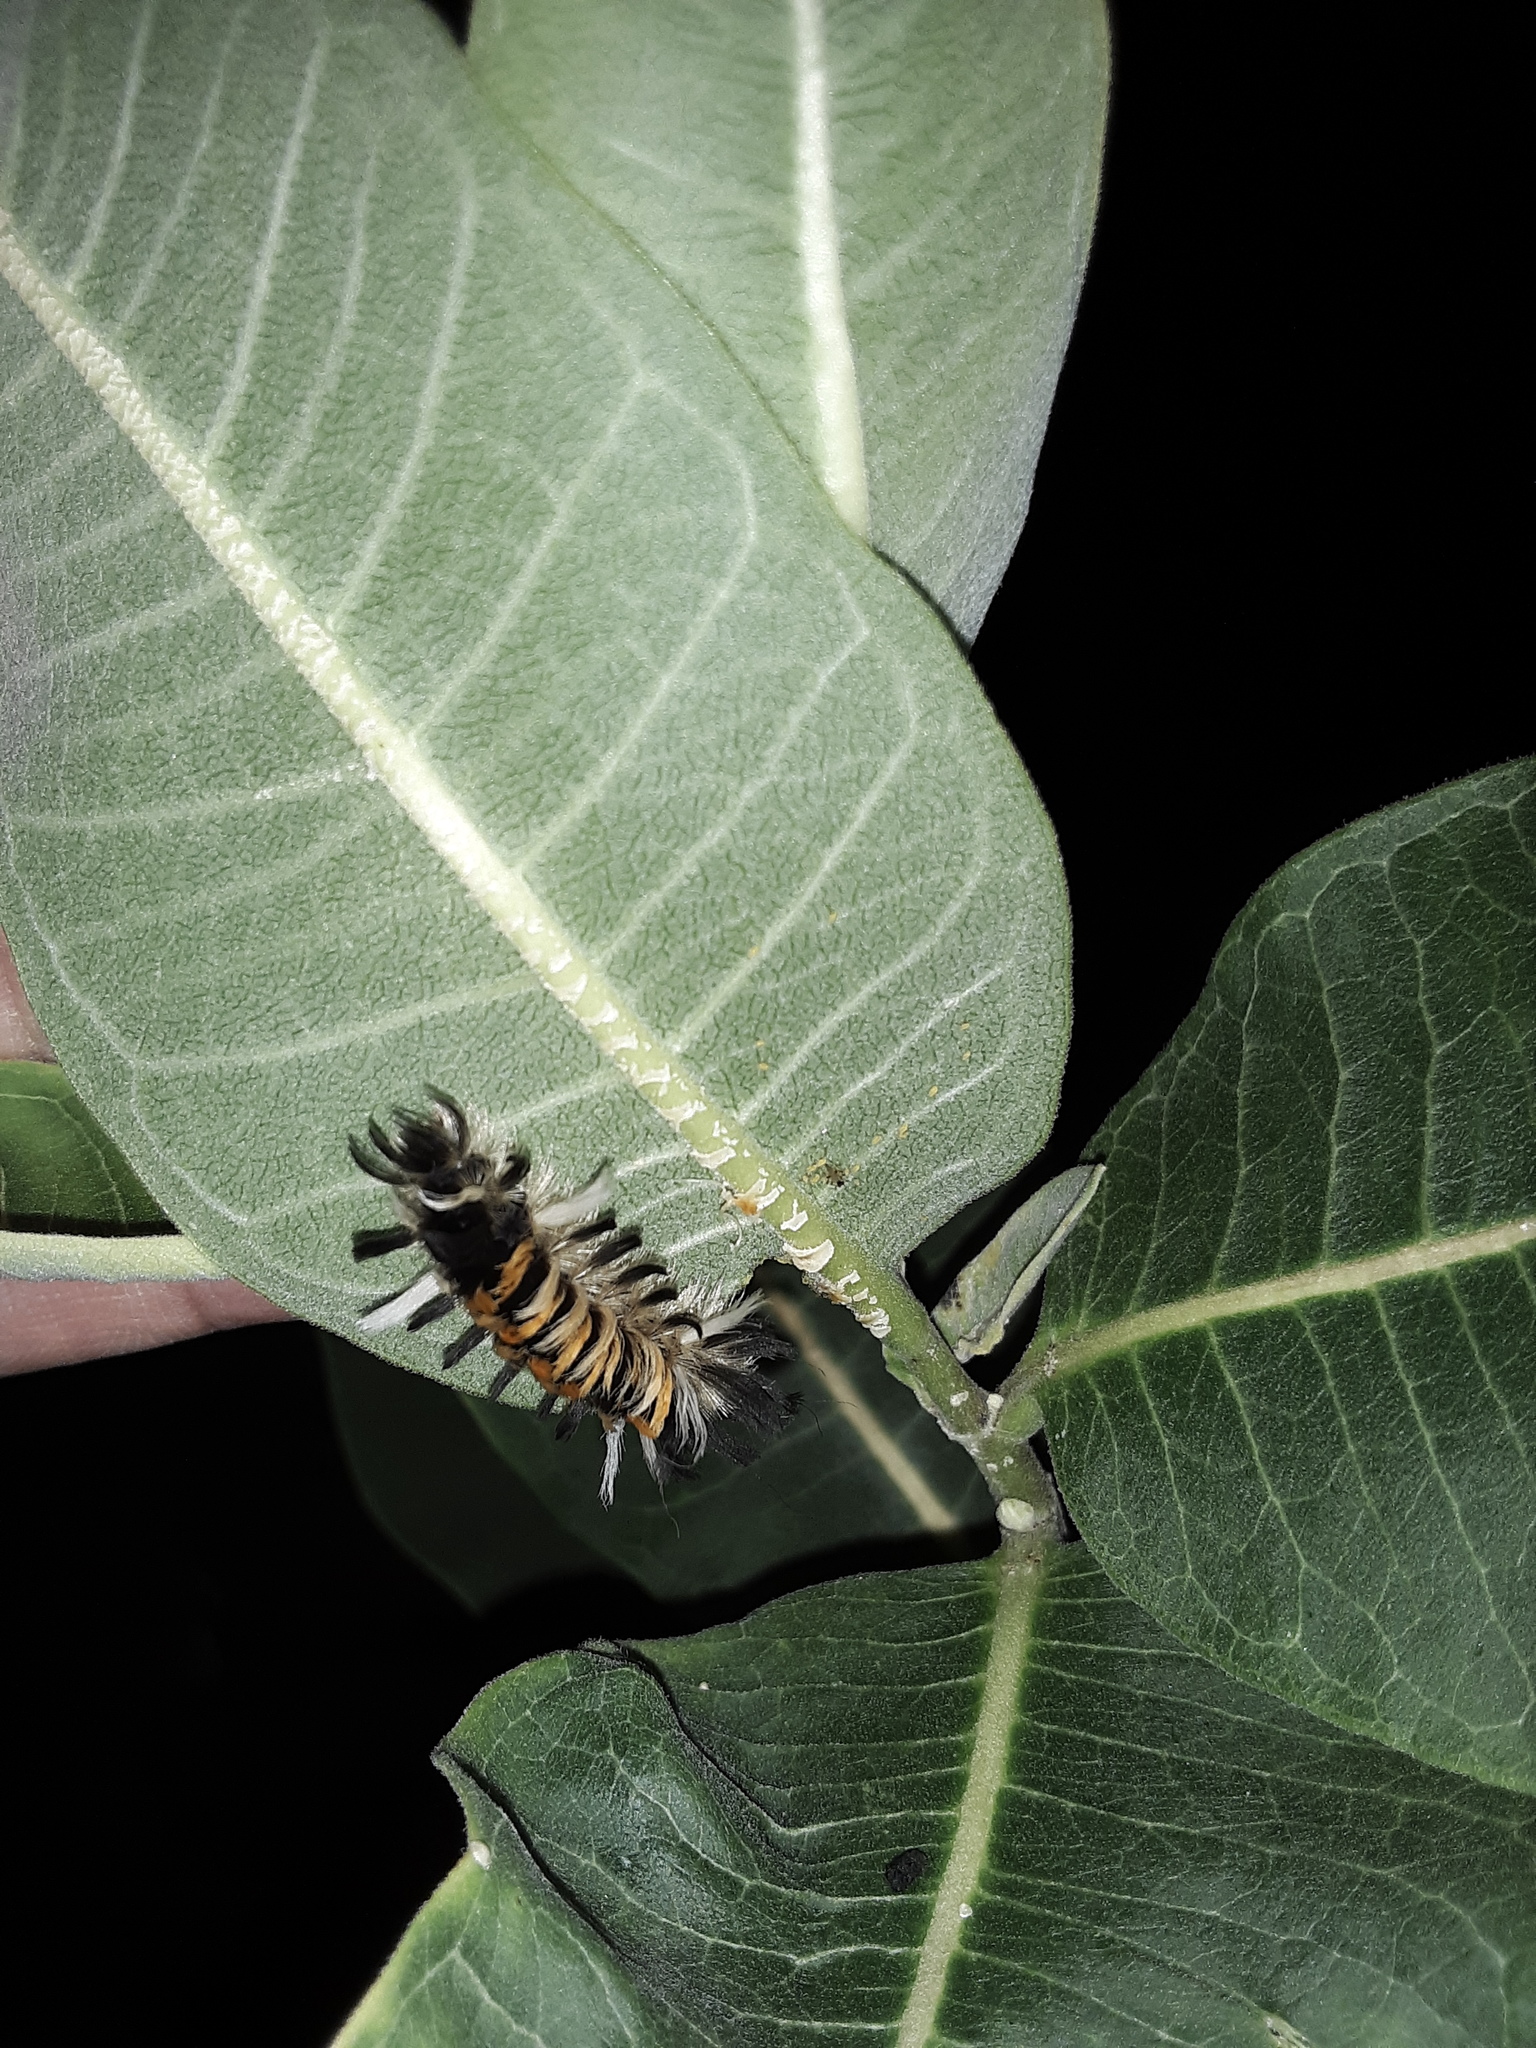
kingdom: Animalia
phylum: Arthropoda
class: Insecta
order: Lepidoptera
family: Erebidae
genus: Euchaetes
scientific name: Euchaetes egle
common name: Milkweed tussock moth
